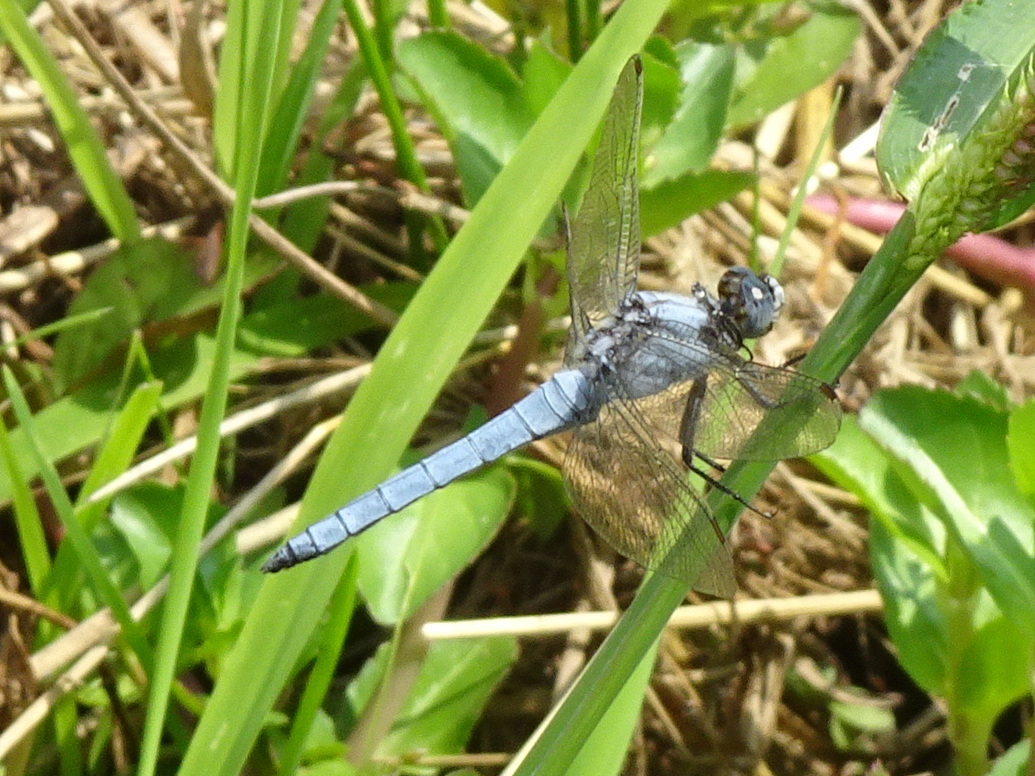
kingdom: Animalia
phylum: Arthropoda
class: Insecta
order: Odonata
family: Libellulidae
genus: Orthetrum
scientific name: Orthetrum brunneum
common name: Southern skimmer
